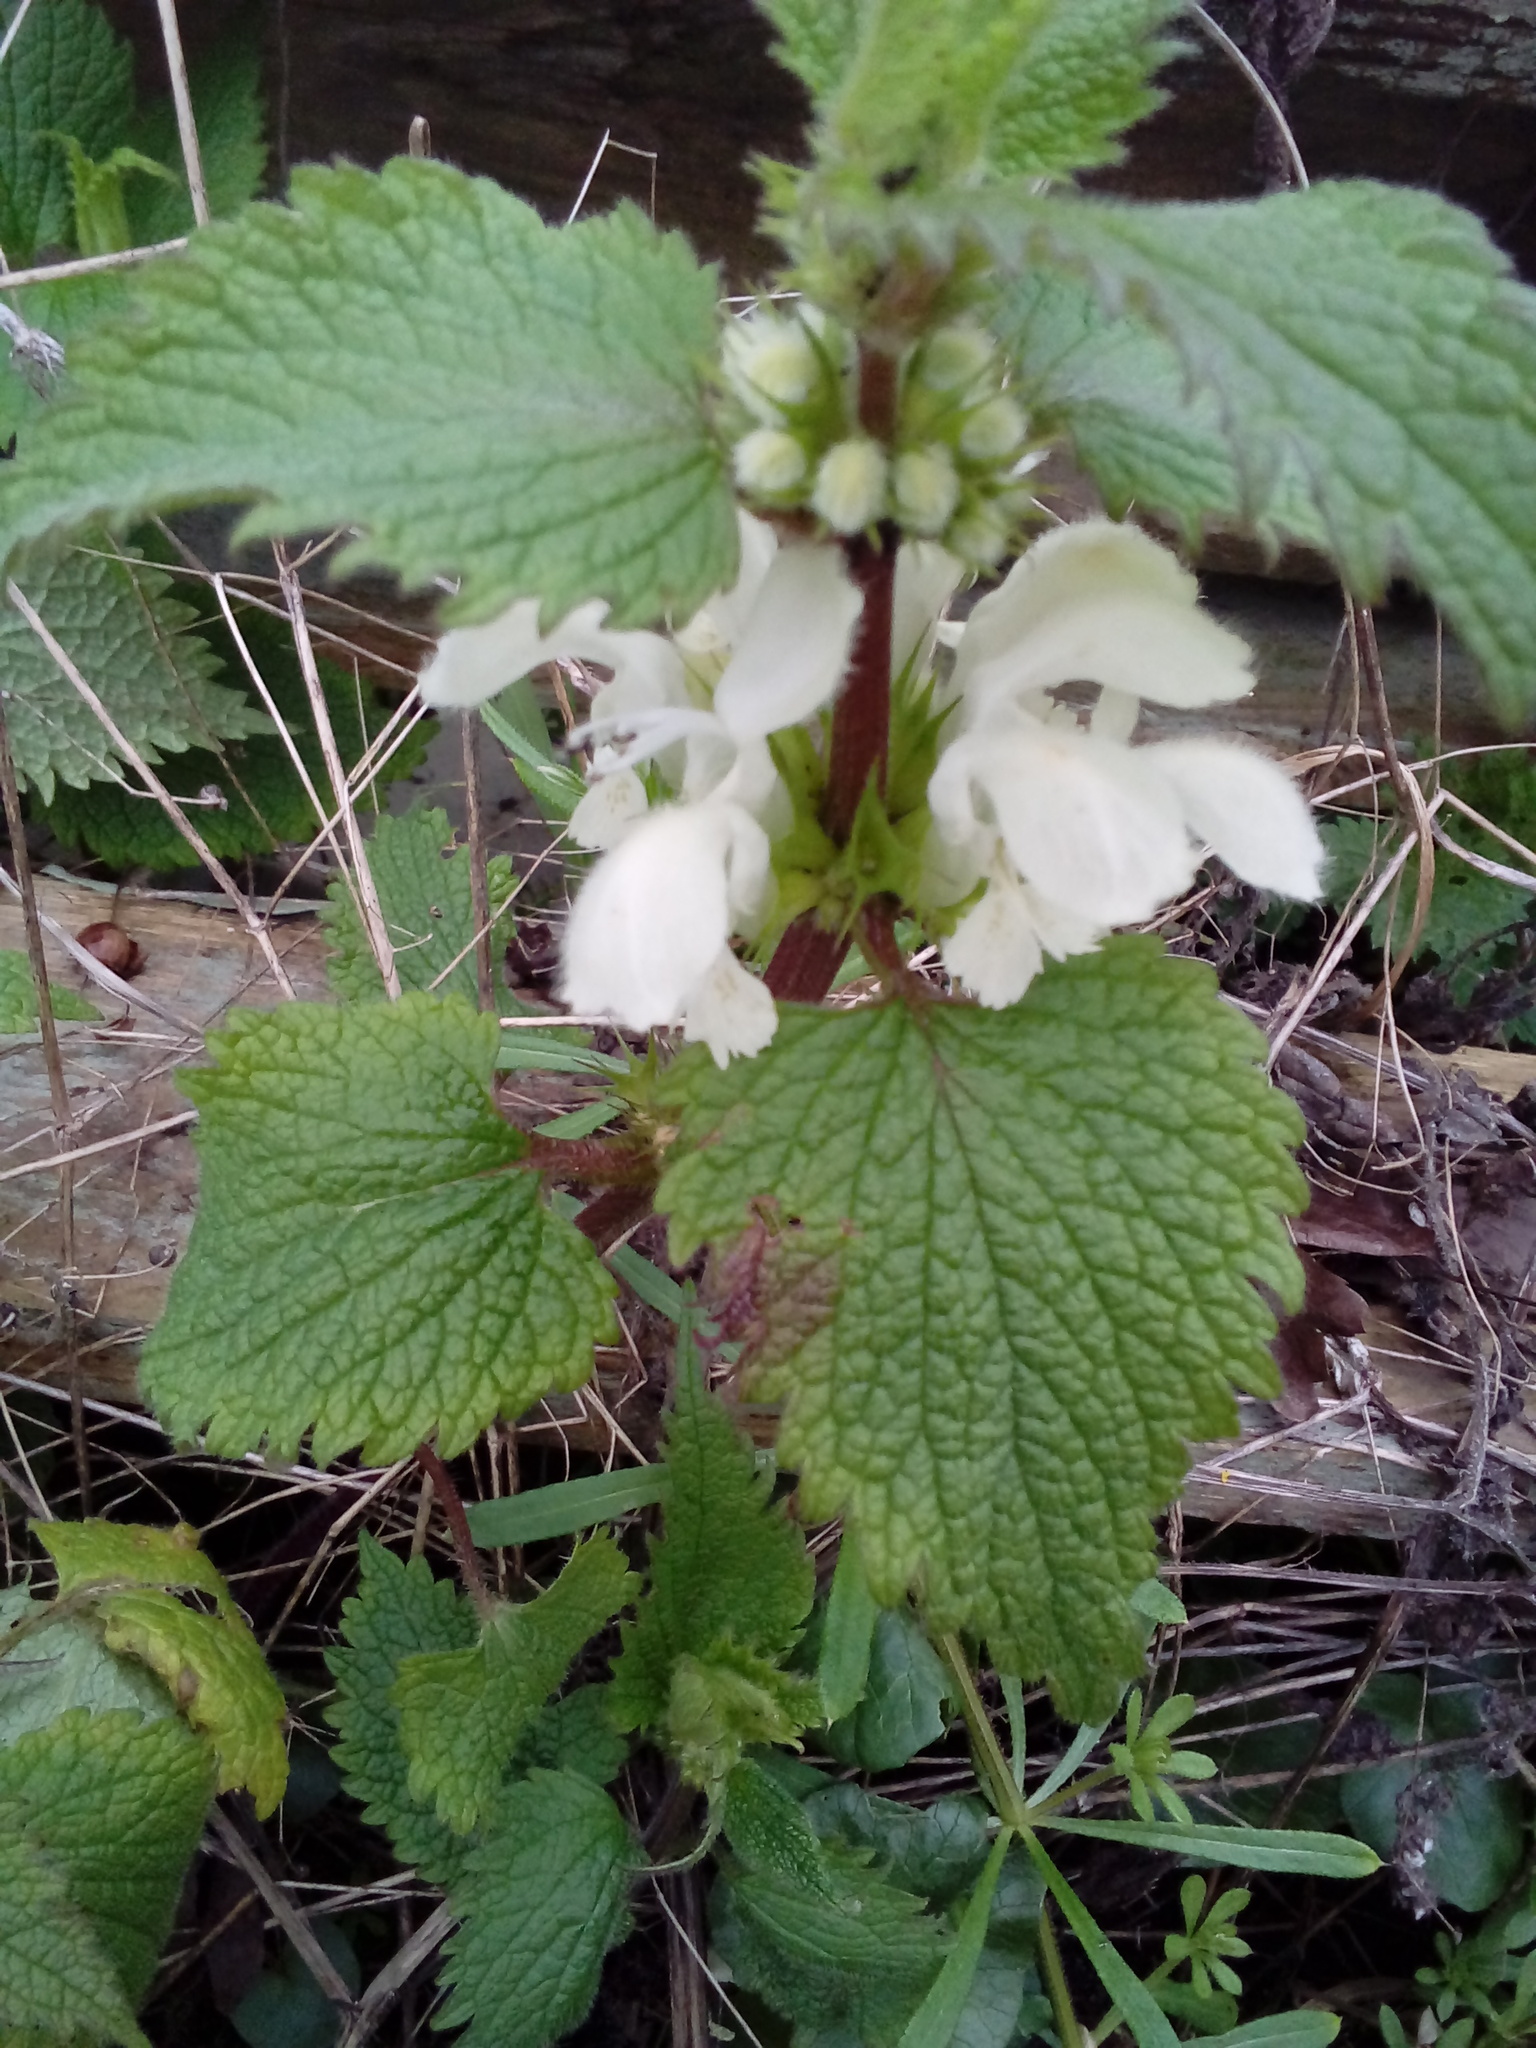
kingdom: Plantae
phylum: Tracheophyta
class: Magnoliopsida
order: Lamiales
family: Lamiaceae
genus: Lamium
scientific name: Lamium album
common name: White dead-nettle
